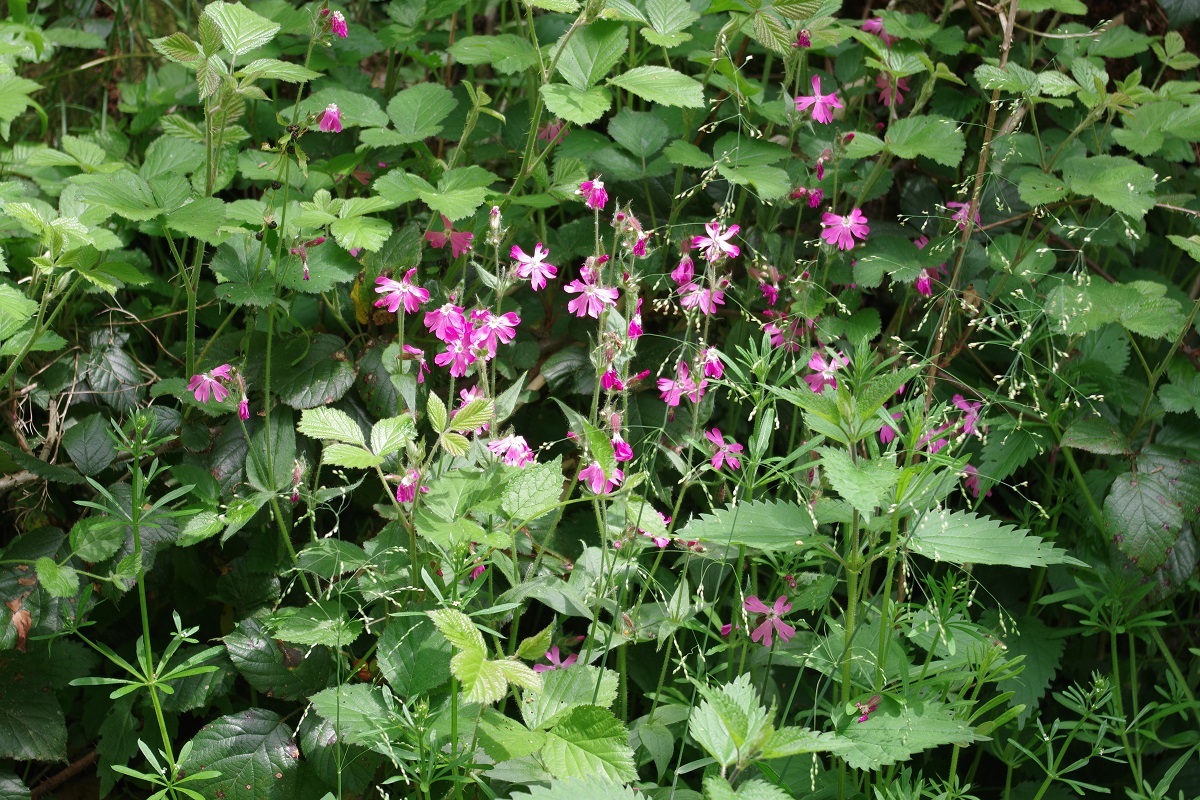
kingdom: Plantae
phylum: Tracheophyta
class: Magnoliopsida
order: Caryophyllales
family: Caryophyllaceae
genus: Silene
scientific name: Silene dioica
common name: Red campion
